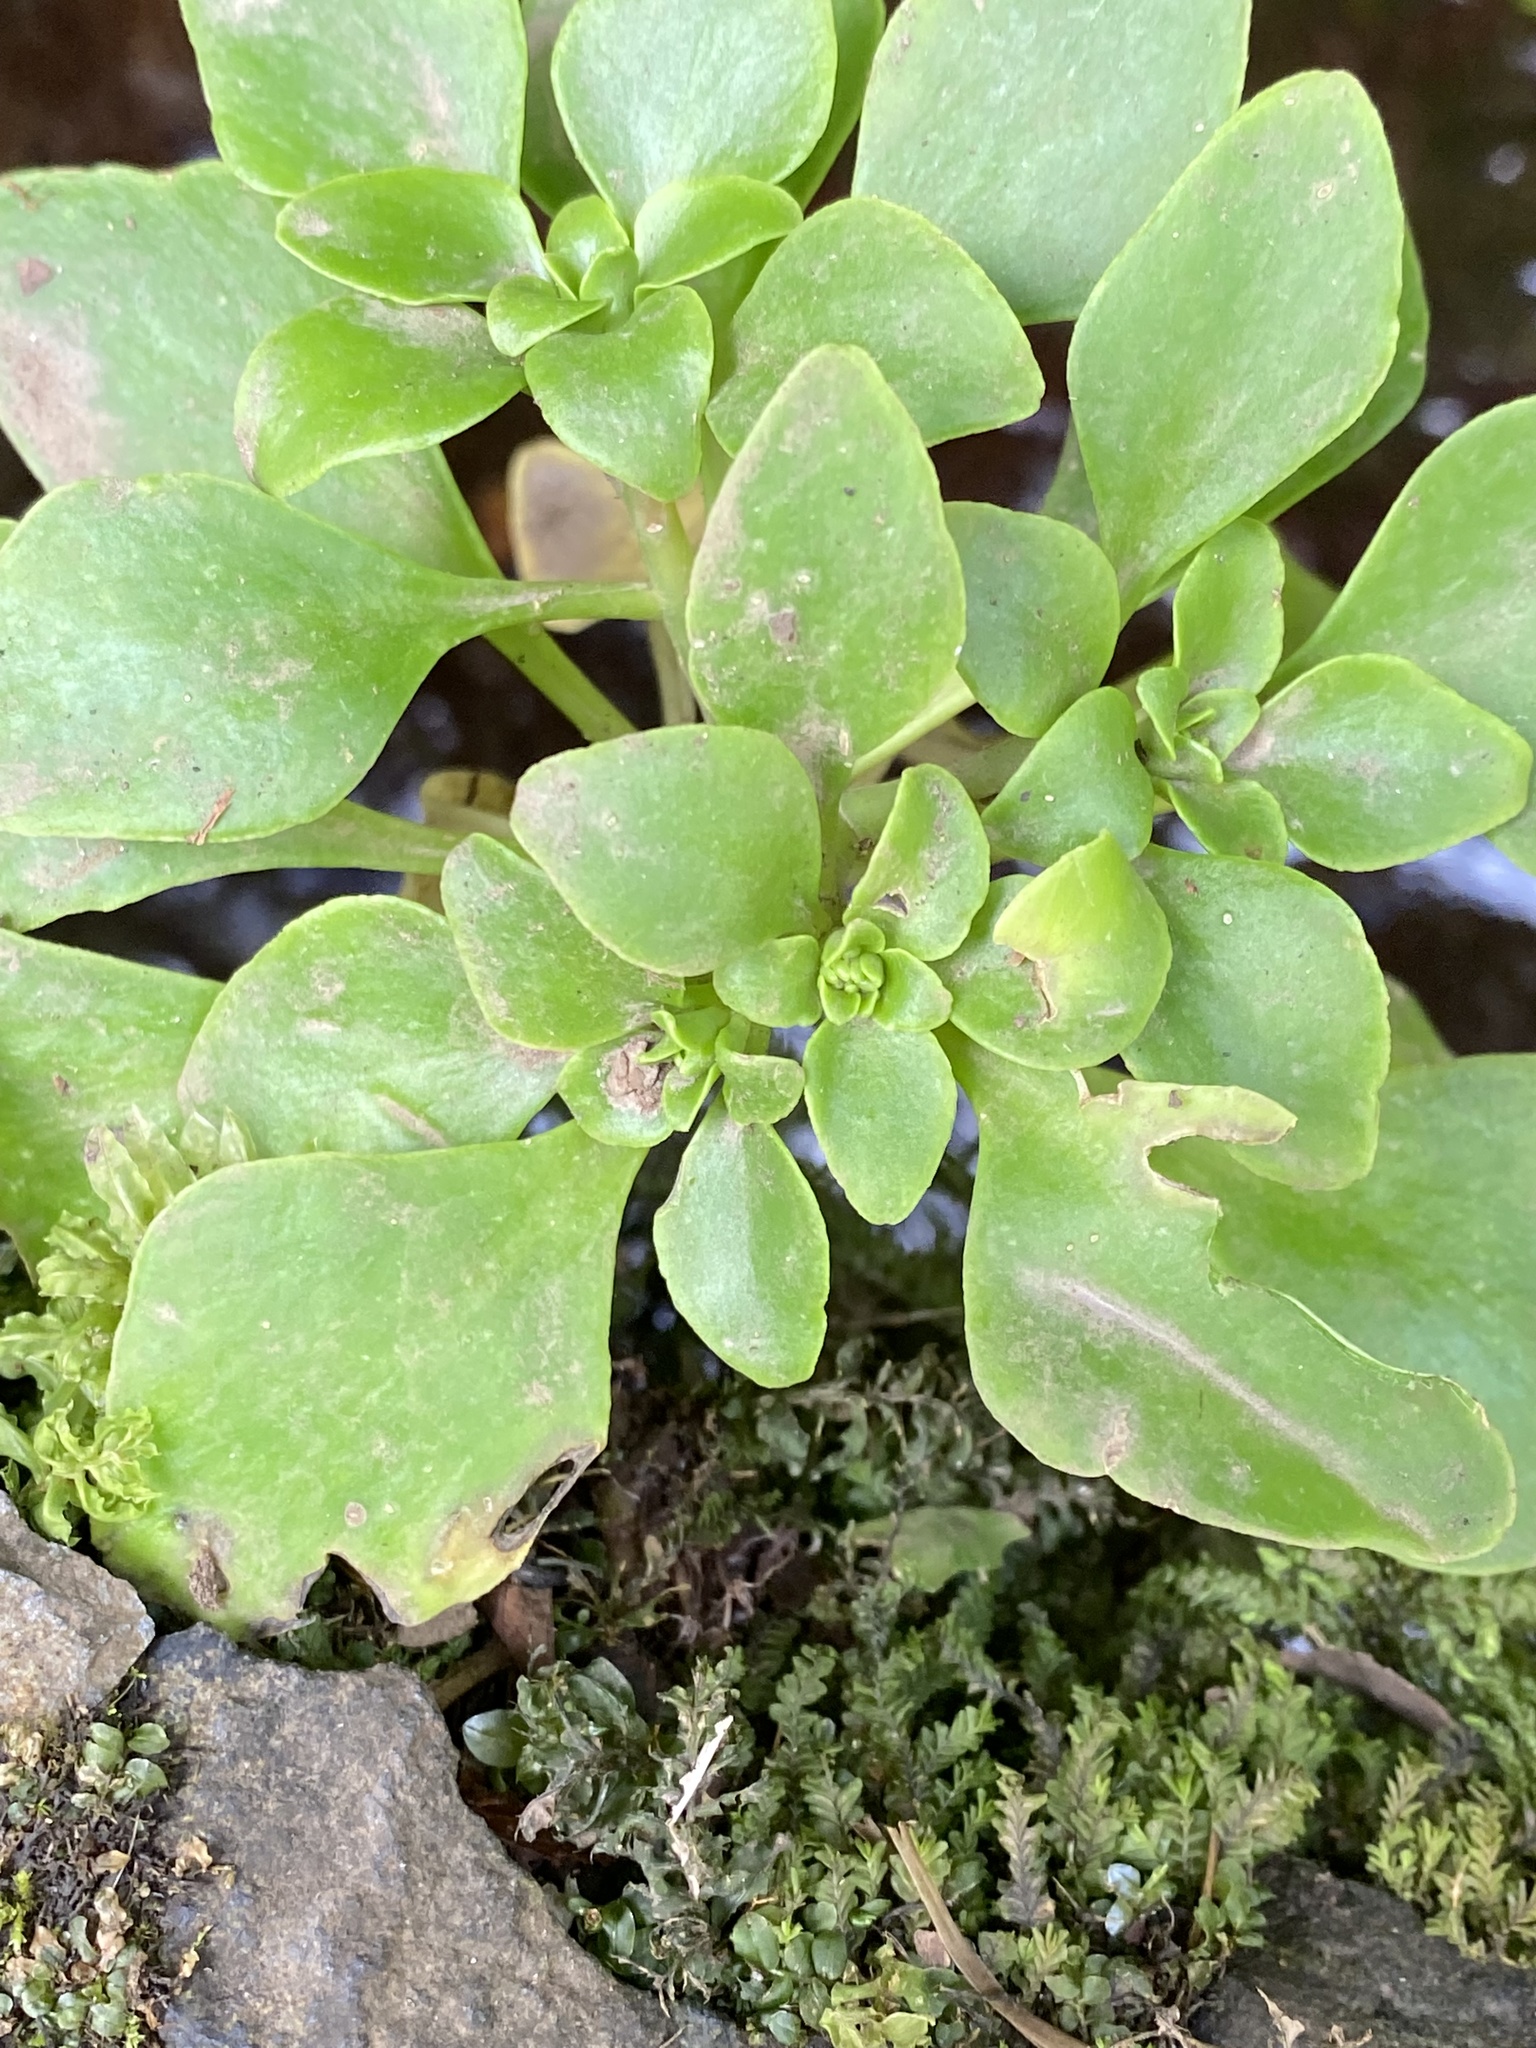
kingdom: Plantae
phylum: Tracheophyta
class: Magnoliopsida
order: Saxifragales
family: Crassulaceae
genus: Aichryson
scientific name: Aichryson divaricatum
